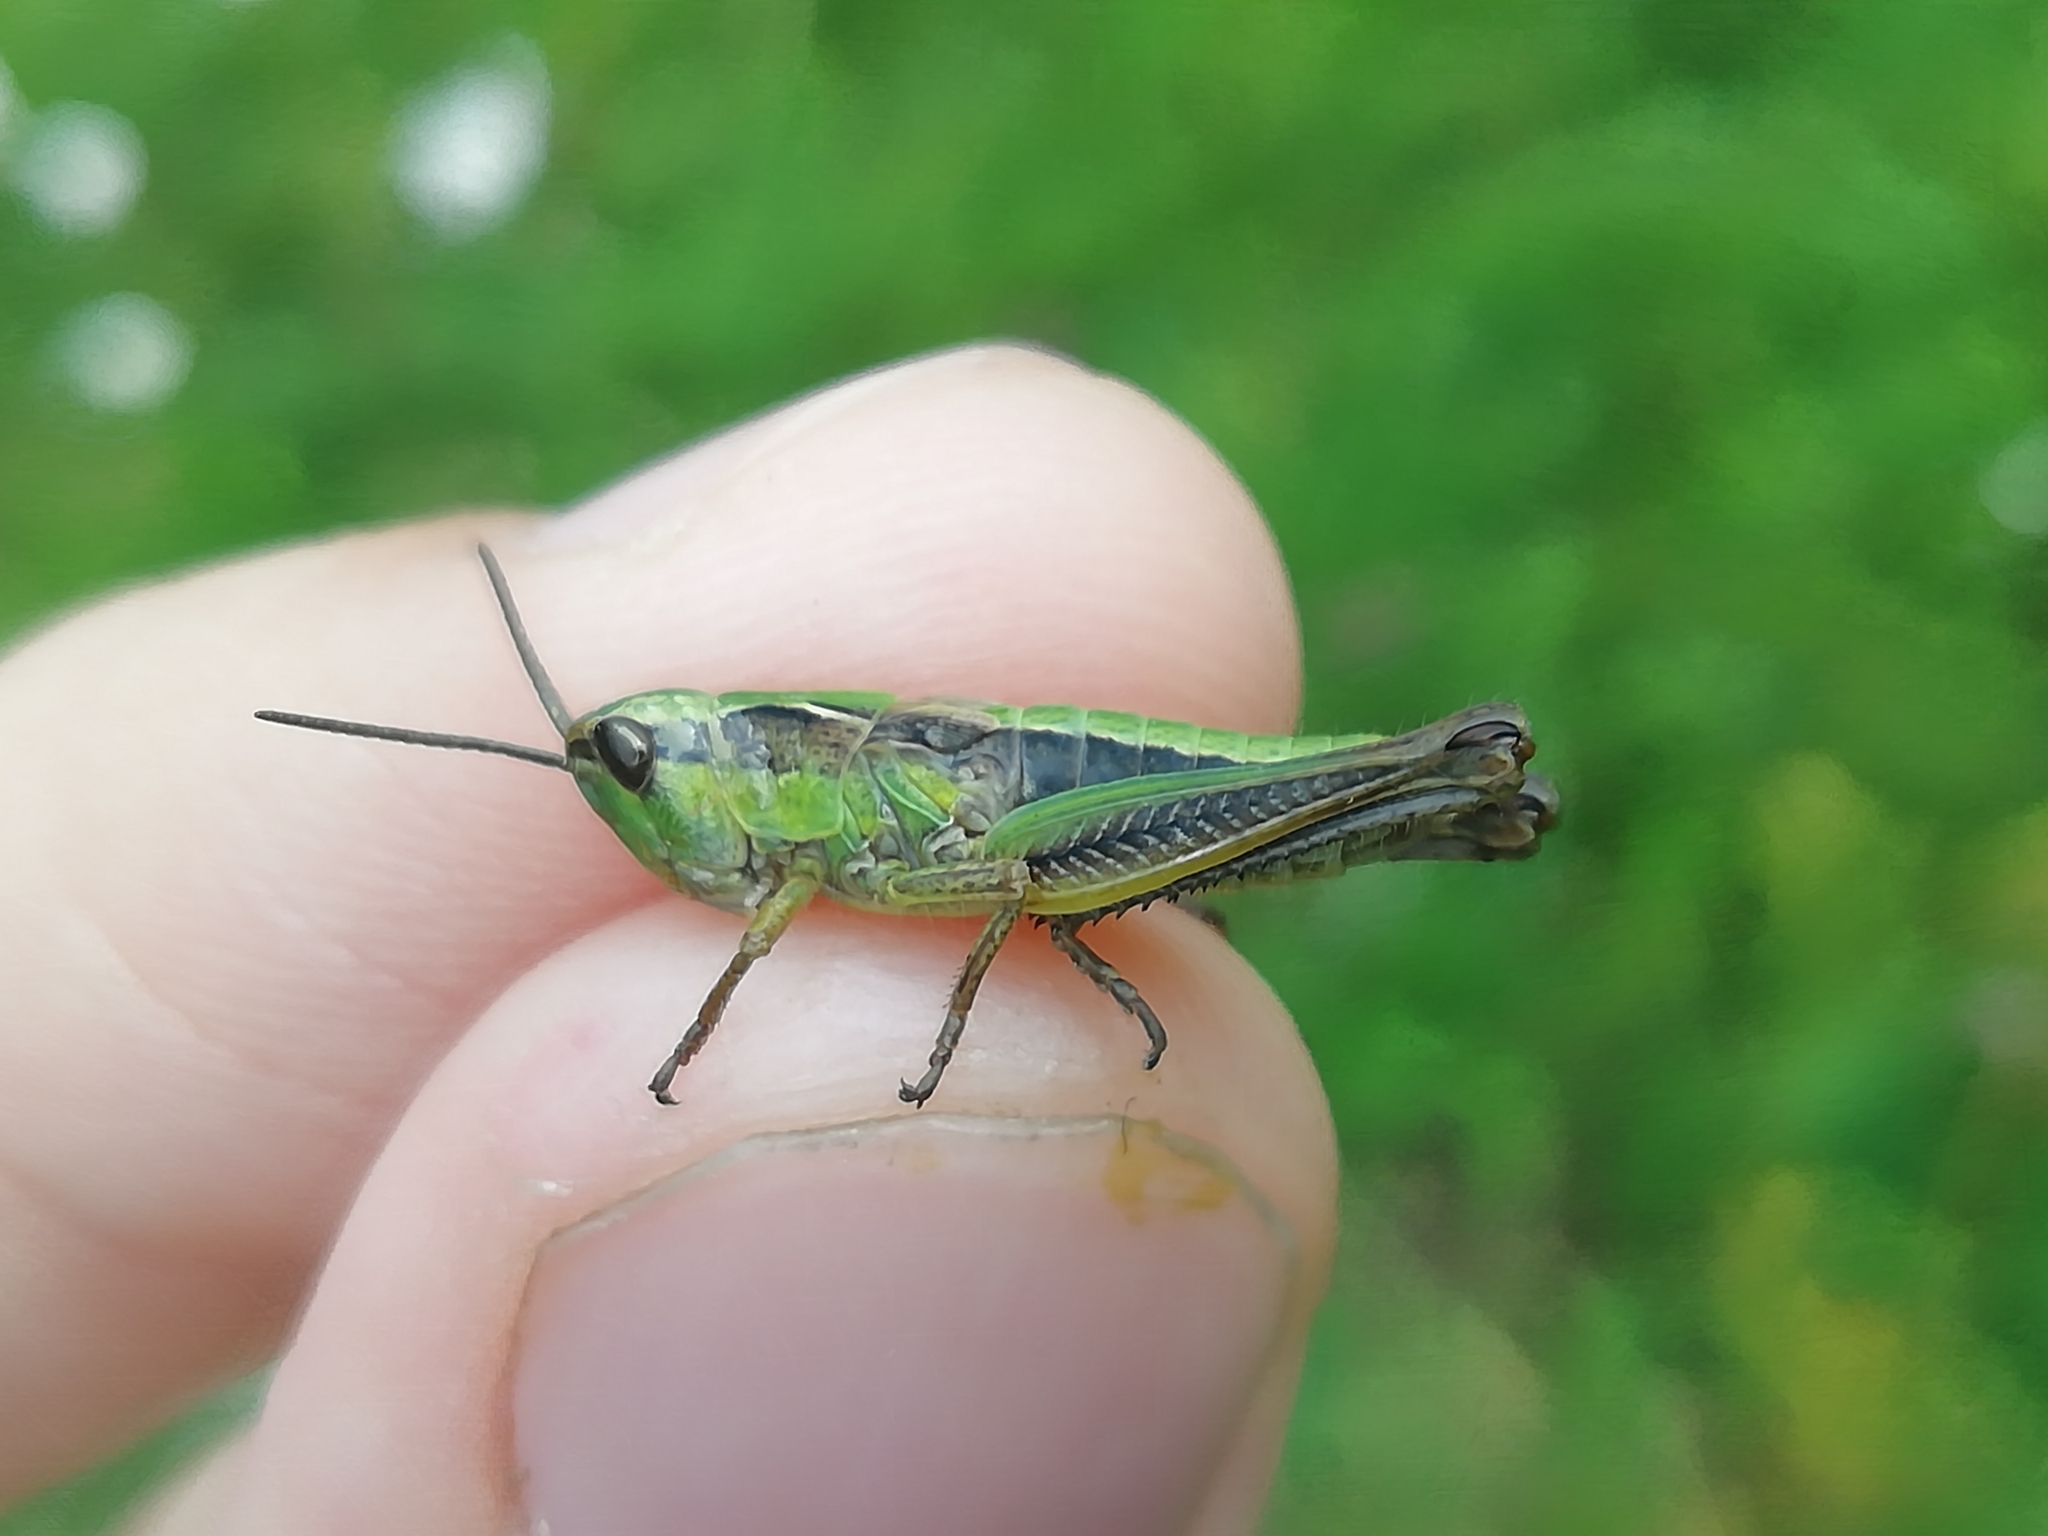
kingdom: Animalia
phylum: Arthropoda
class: Insecta
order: Orthoptera
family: Acrididae
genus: Chorthippus
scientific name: Chorthippus fallax
